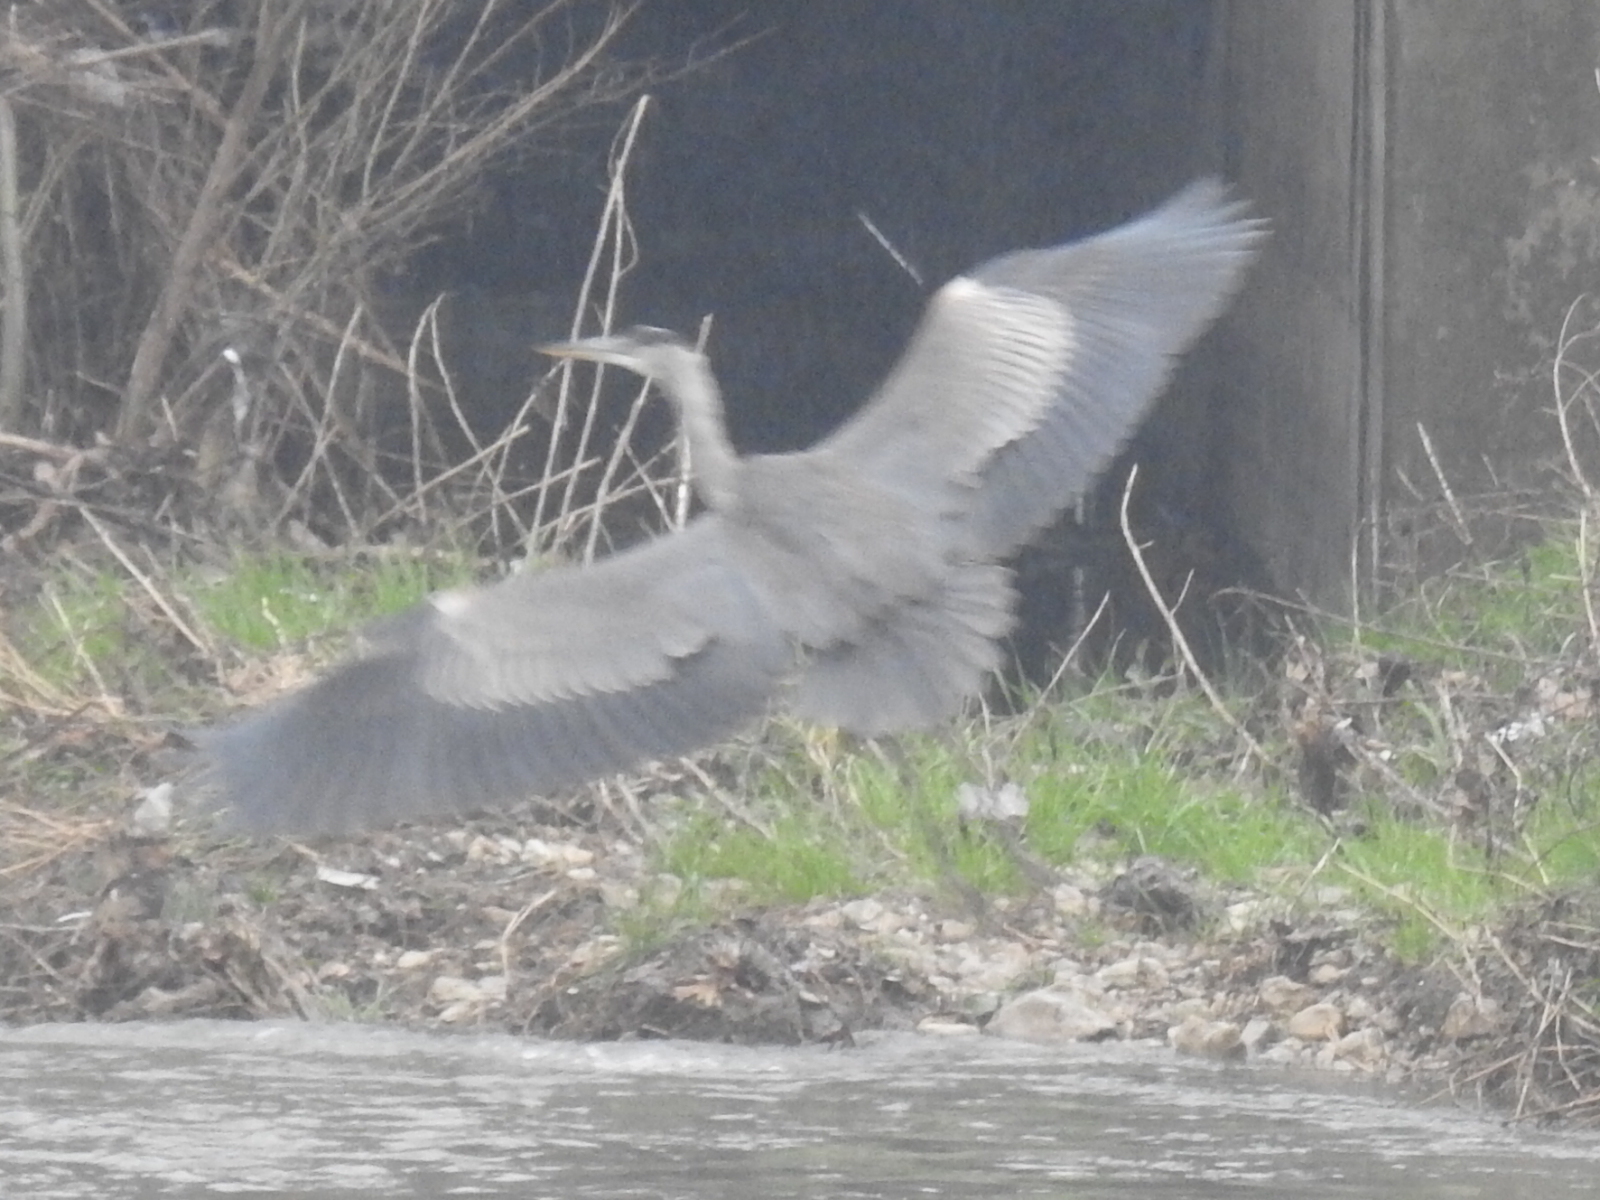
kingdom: Animalia
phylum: Chordata
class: Aves
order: Pelecaniformes
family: Ardeidae
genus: Ardea
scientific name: Ardea herodias
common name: Great blue heron
